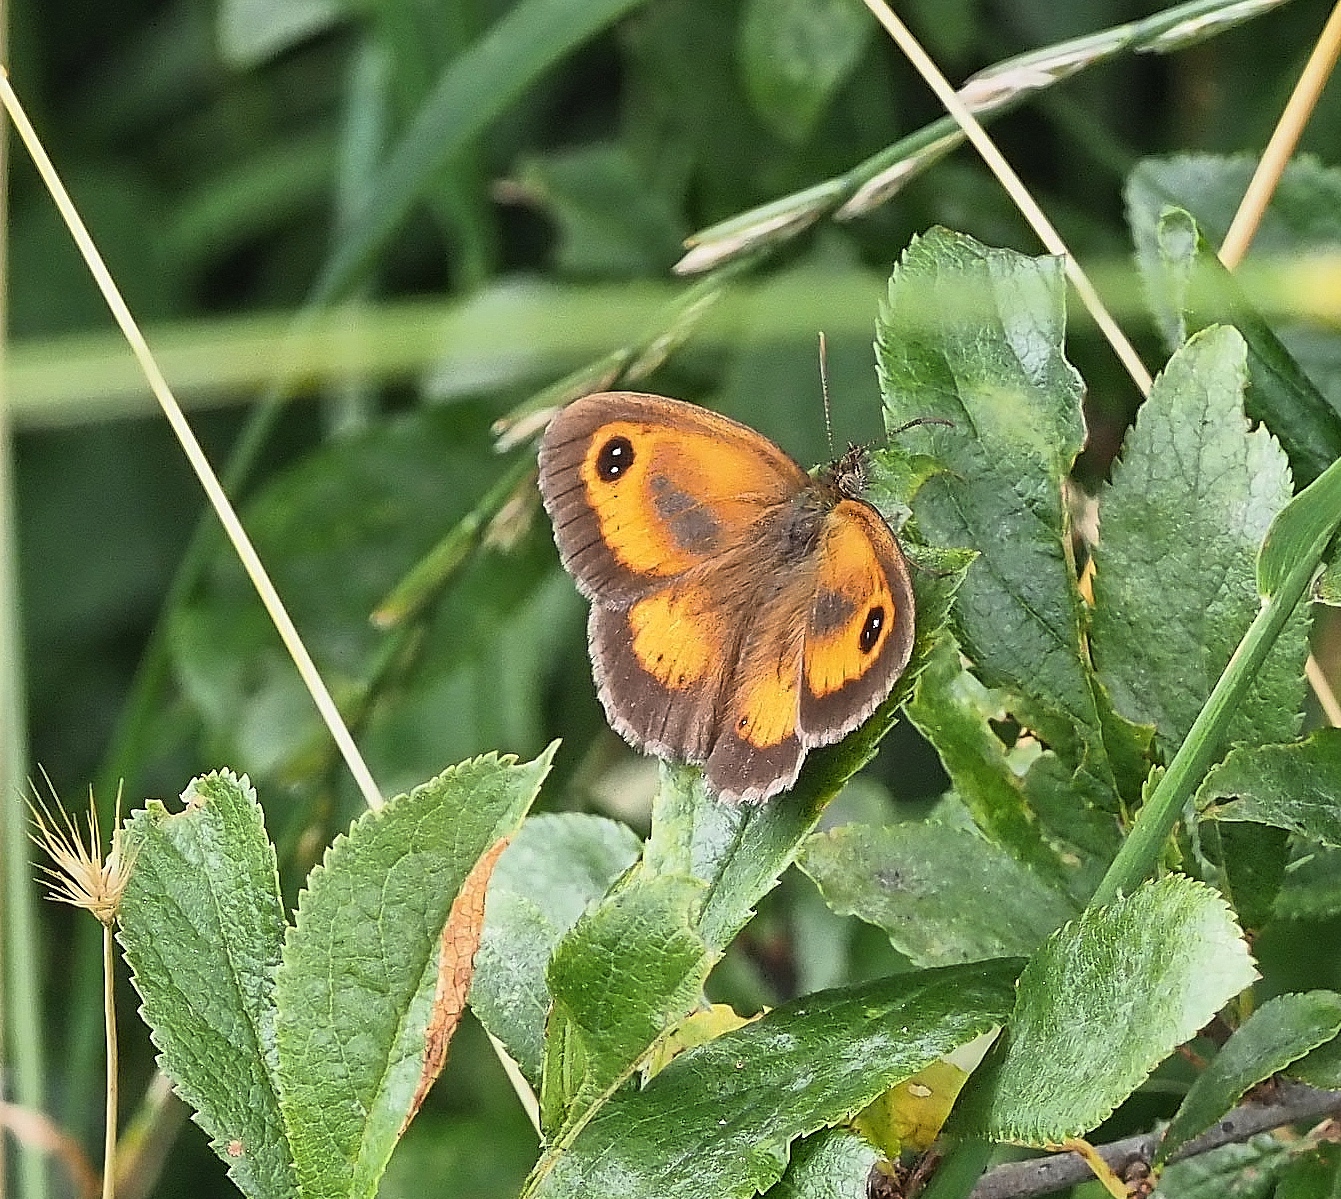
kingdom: Animalia
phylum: Arthropoda
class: Insecta
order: Lepidoptera
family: Nymphalidae
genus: Pyronia
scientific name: Pyronia tithonus
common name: Gatekeeper
